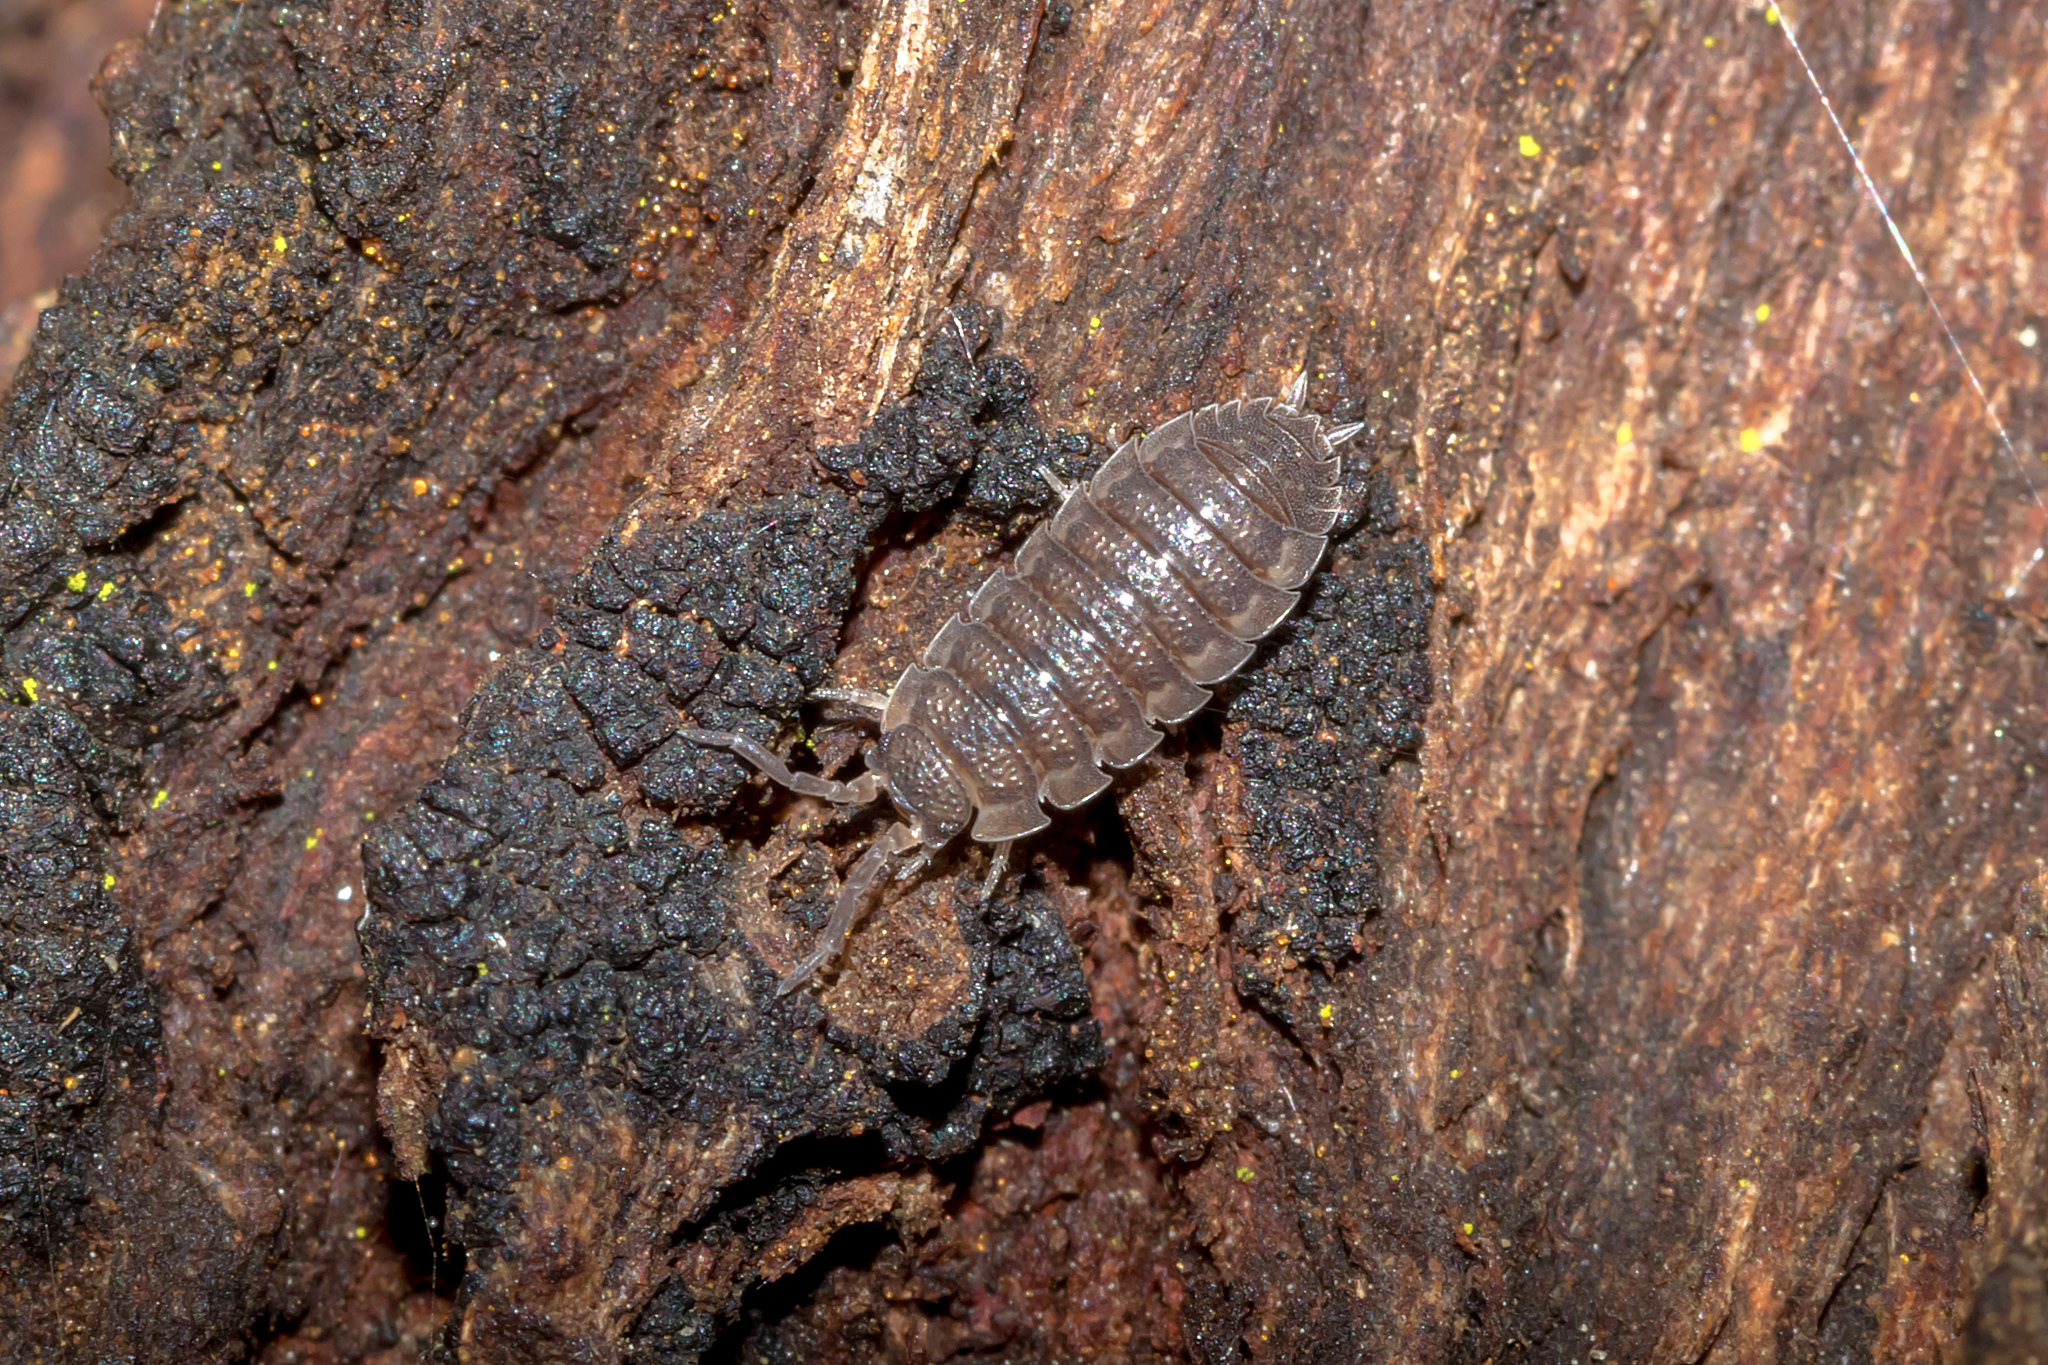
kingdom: Animalia
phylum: Arthropoda
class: Malacostraca
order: Isopoda
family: Porcellionidae
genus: Porcellio
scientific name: Porcellio scaber
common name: Common rough woodlouse
